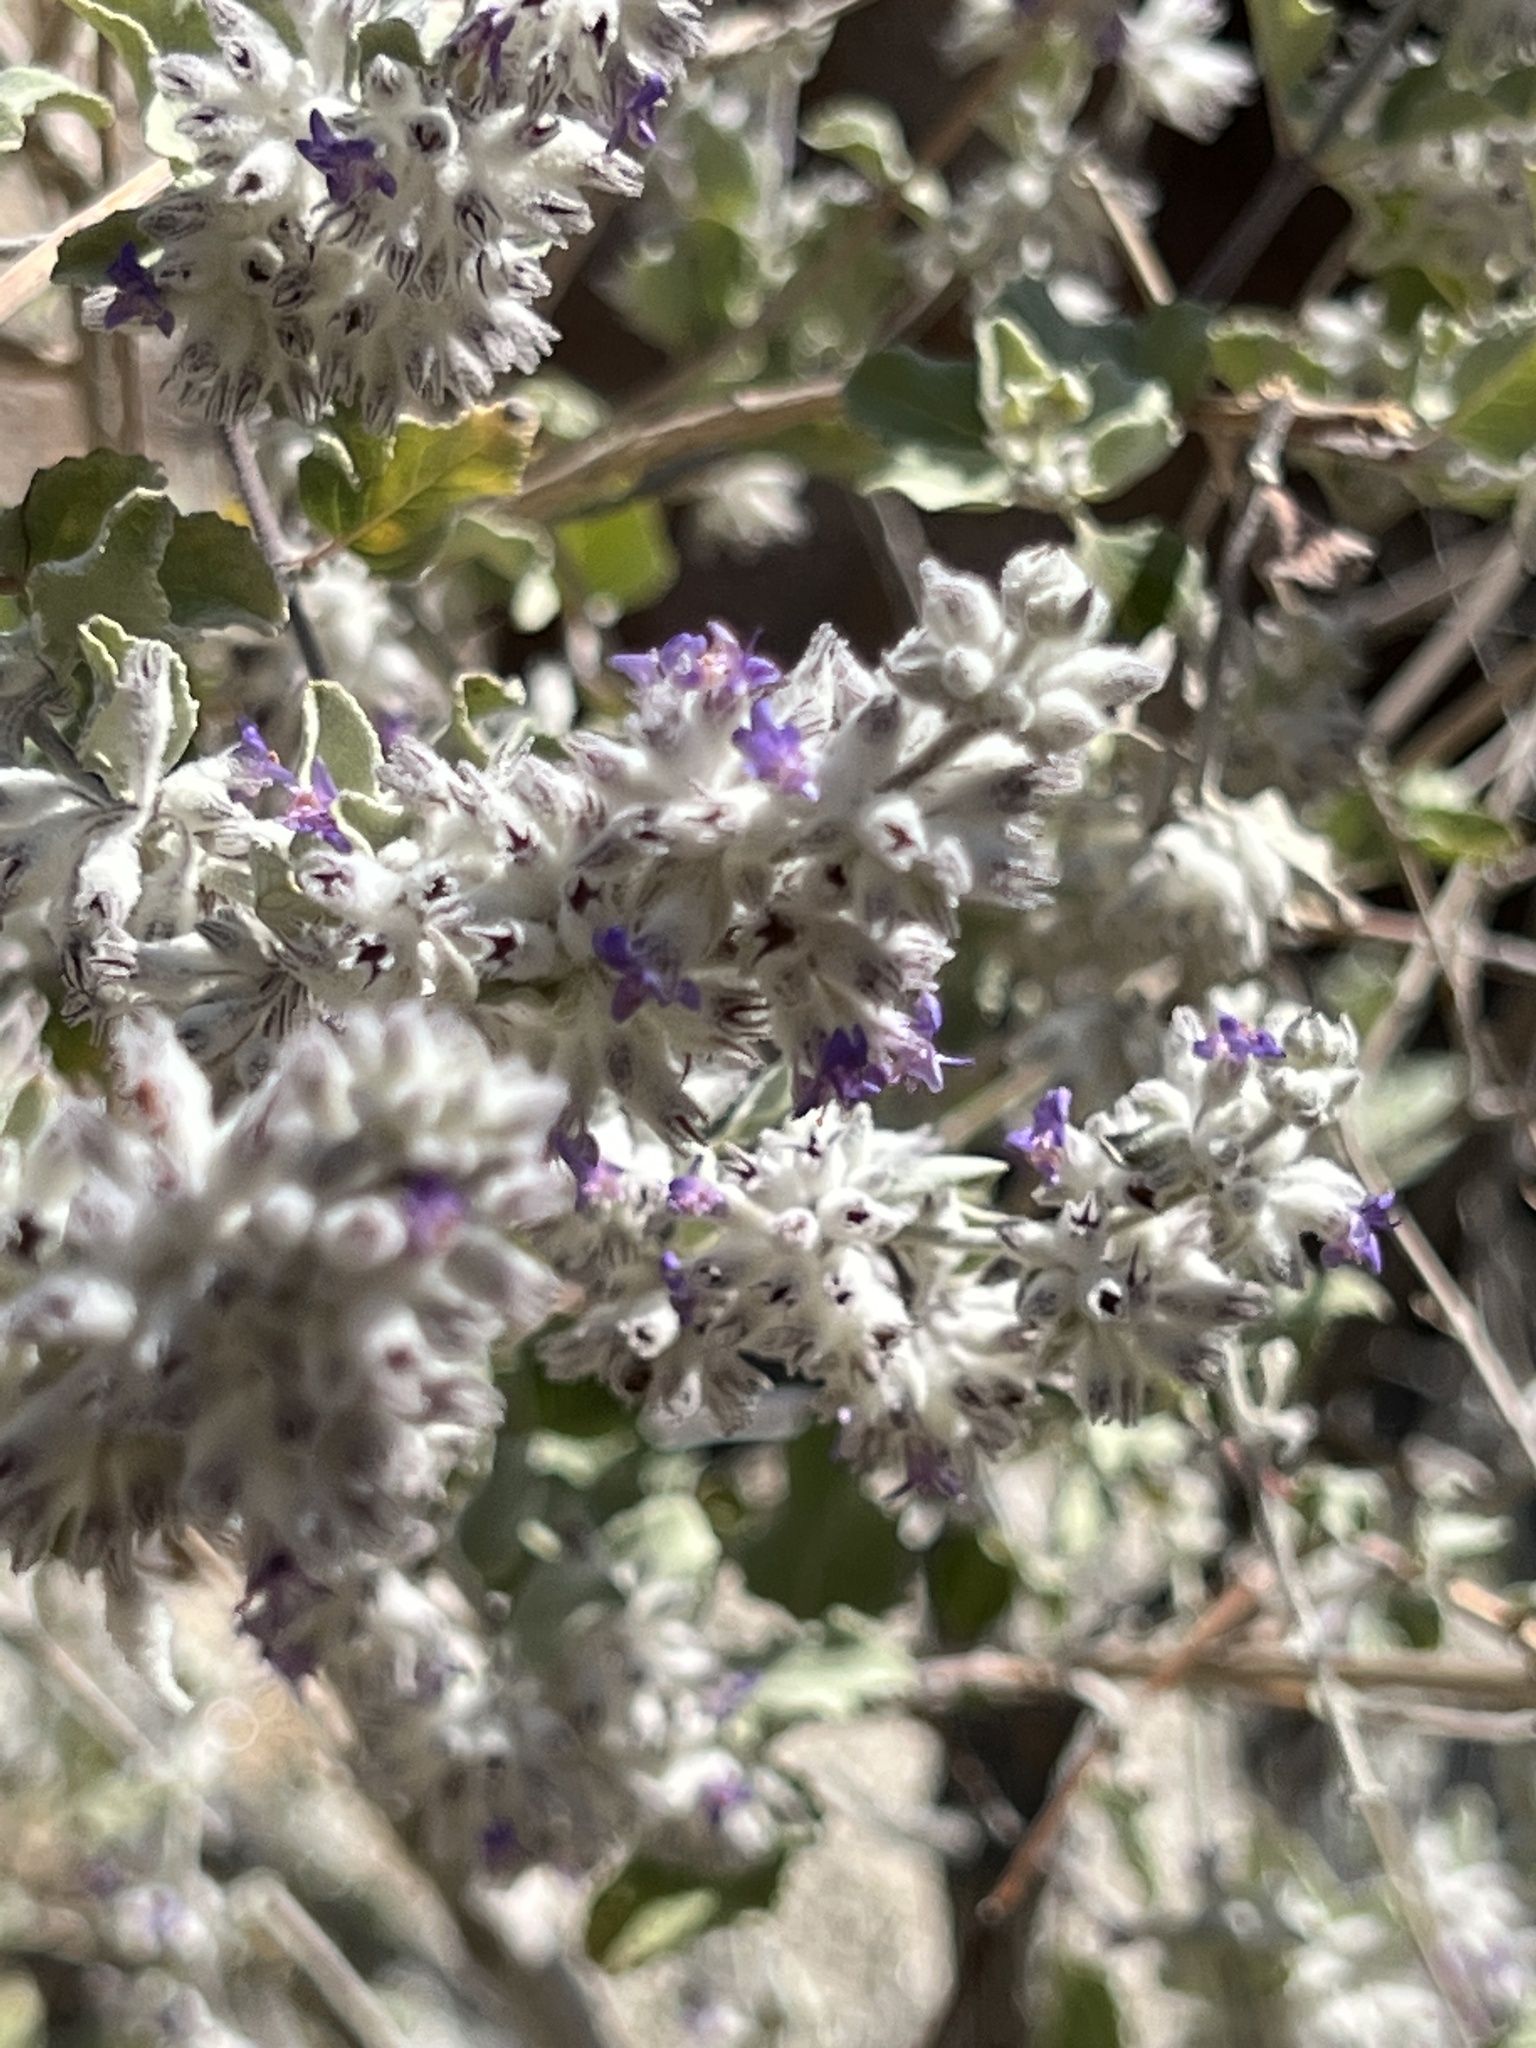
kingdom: Plantae
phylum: Tracheophyta
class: Magnoliopsida
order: Lamiales
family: Lamiaceae
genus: Condea
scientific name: Condea emoryi
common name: Chia
